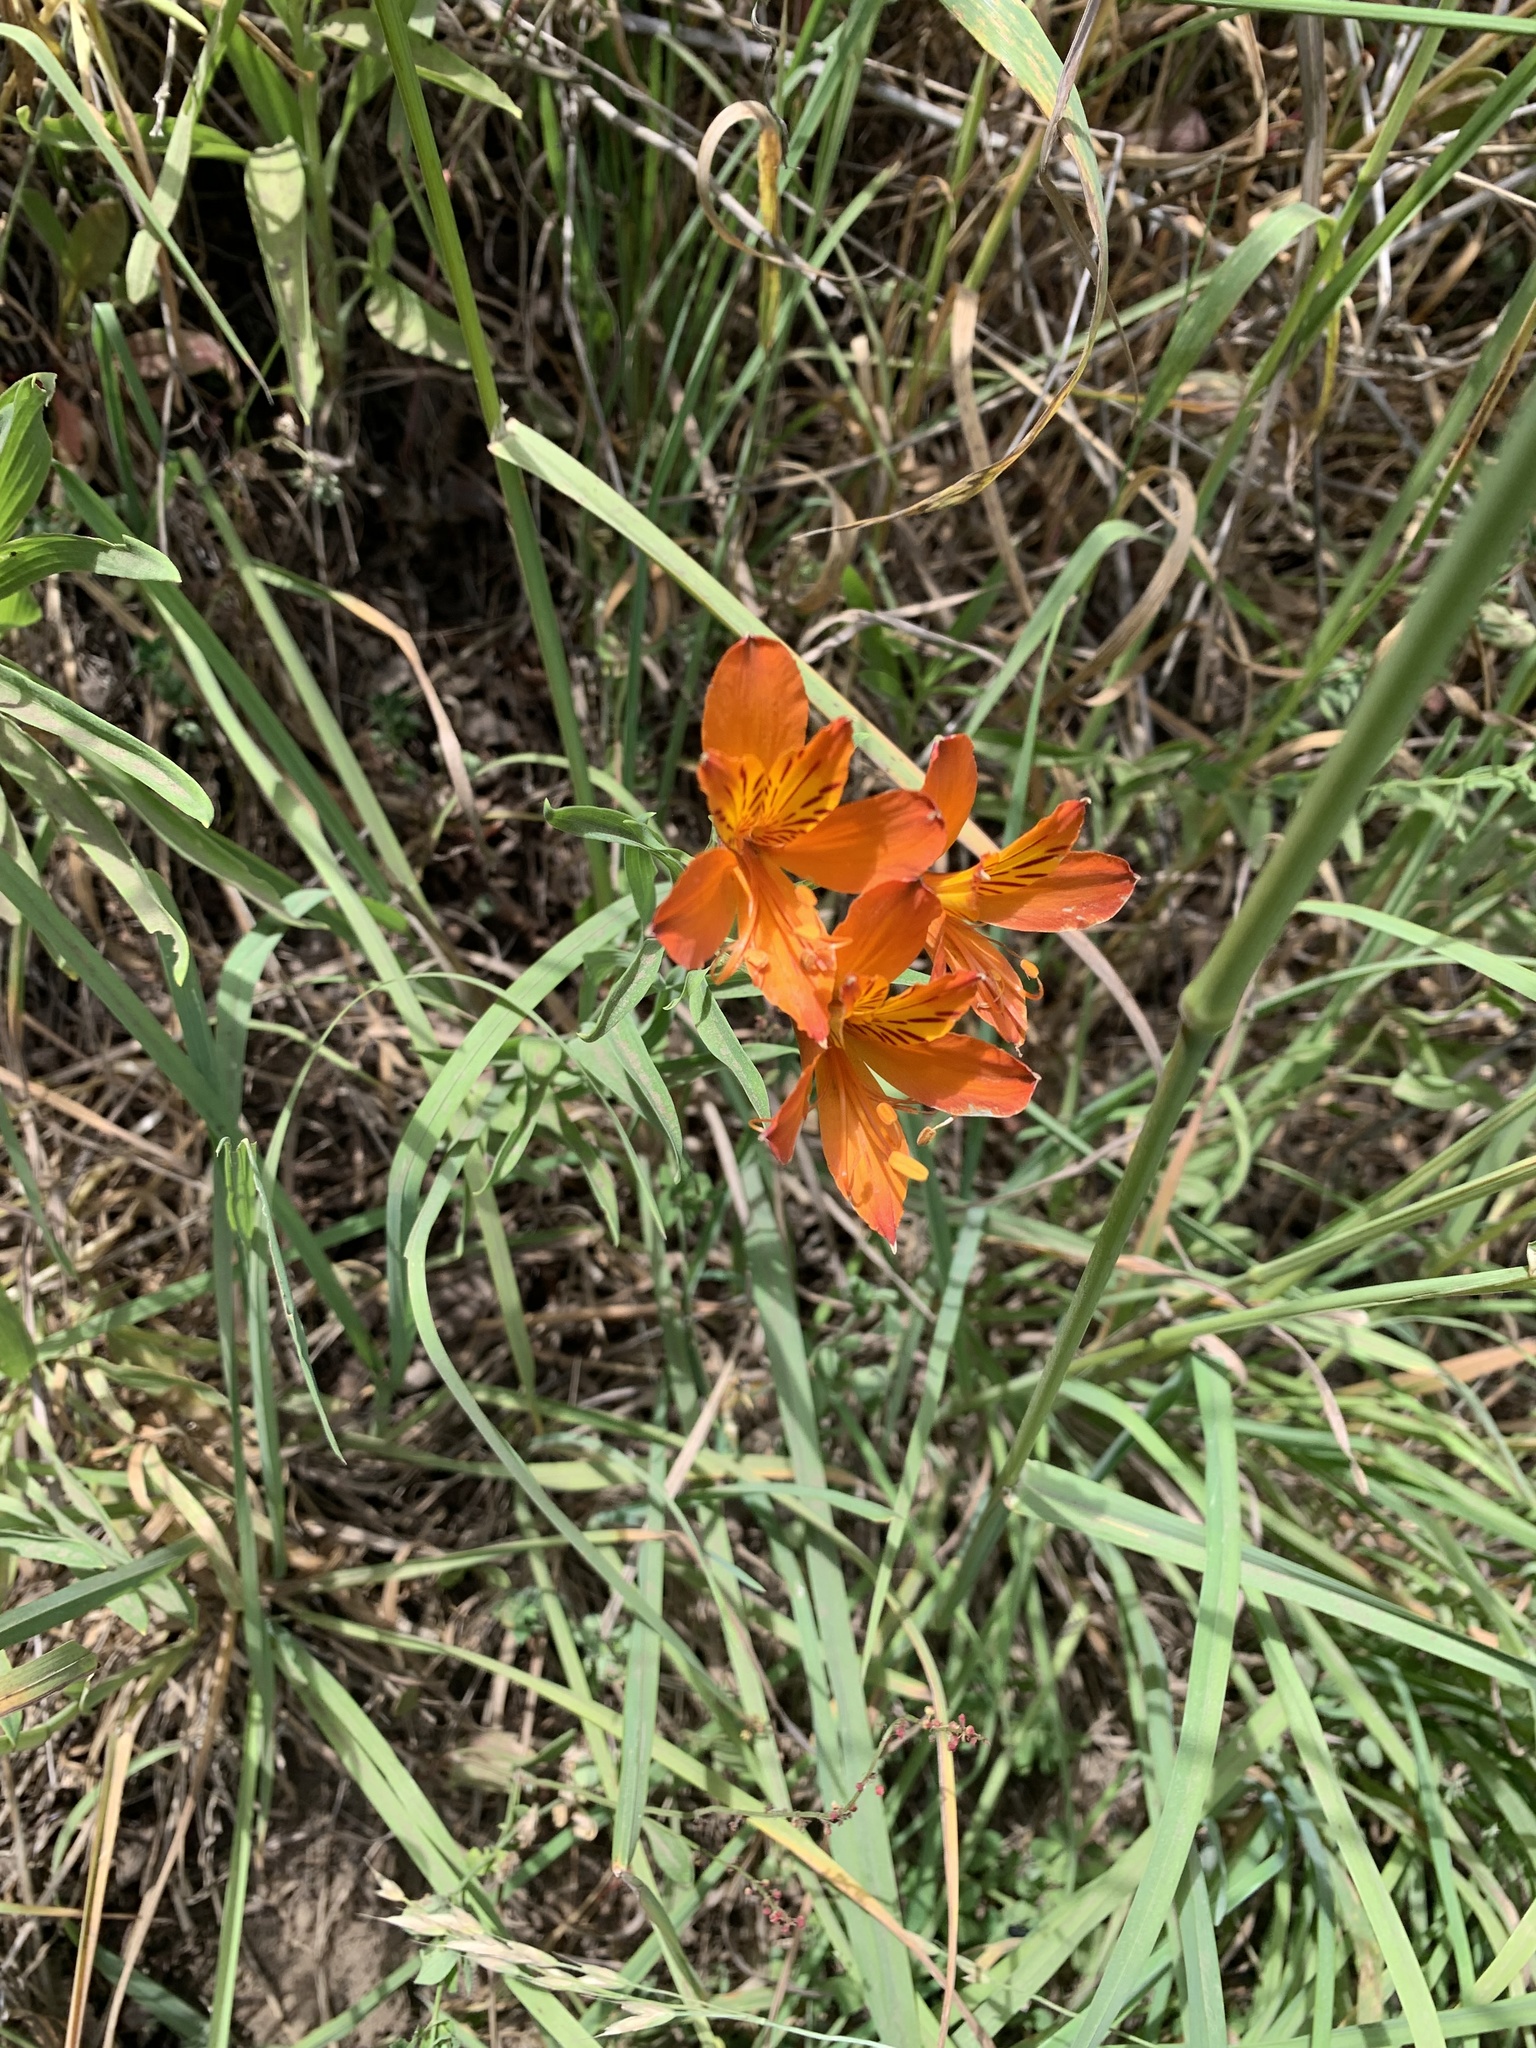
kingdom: Plantae
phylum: Tracheophyta
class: Liliopsida
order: Liliales
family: Alstroemeriaceae
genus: Alstroemeria
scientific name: Alstroemeria aurea
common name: Peruvian lily
